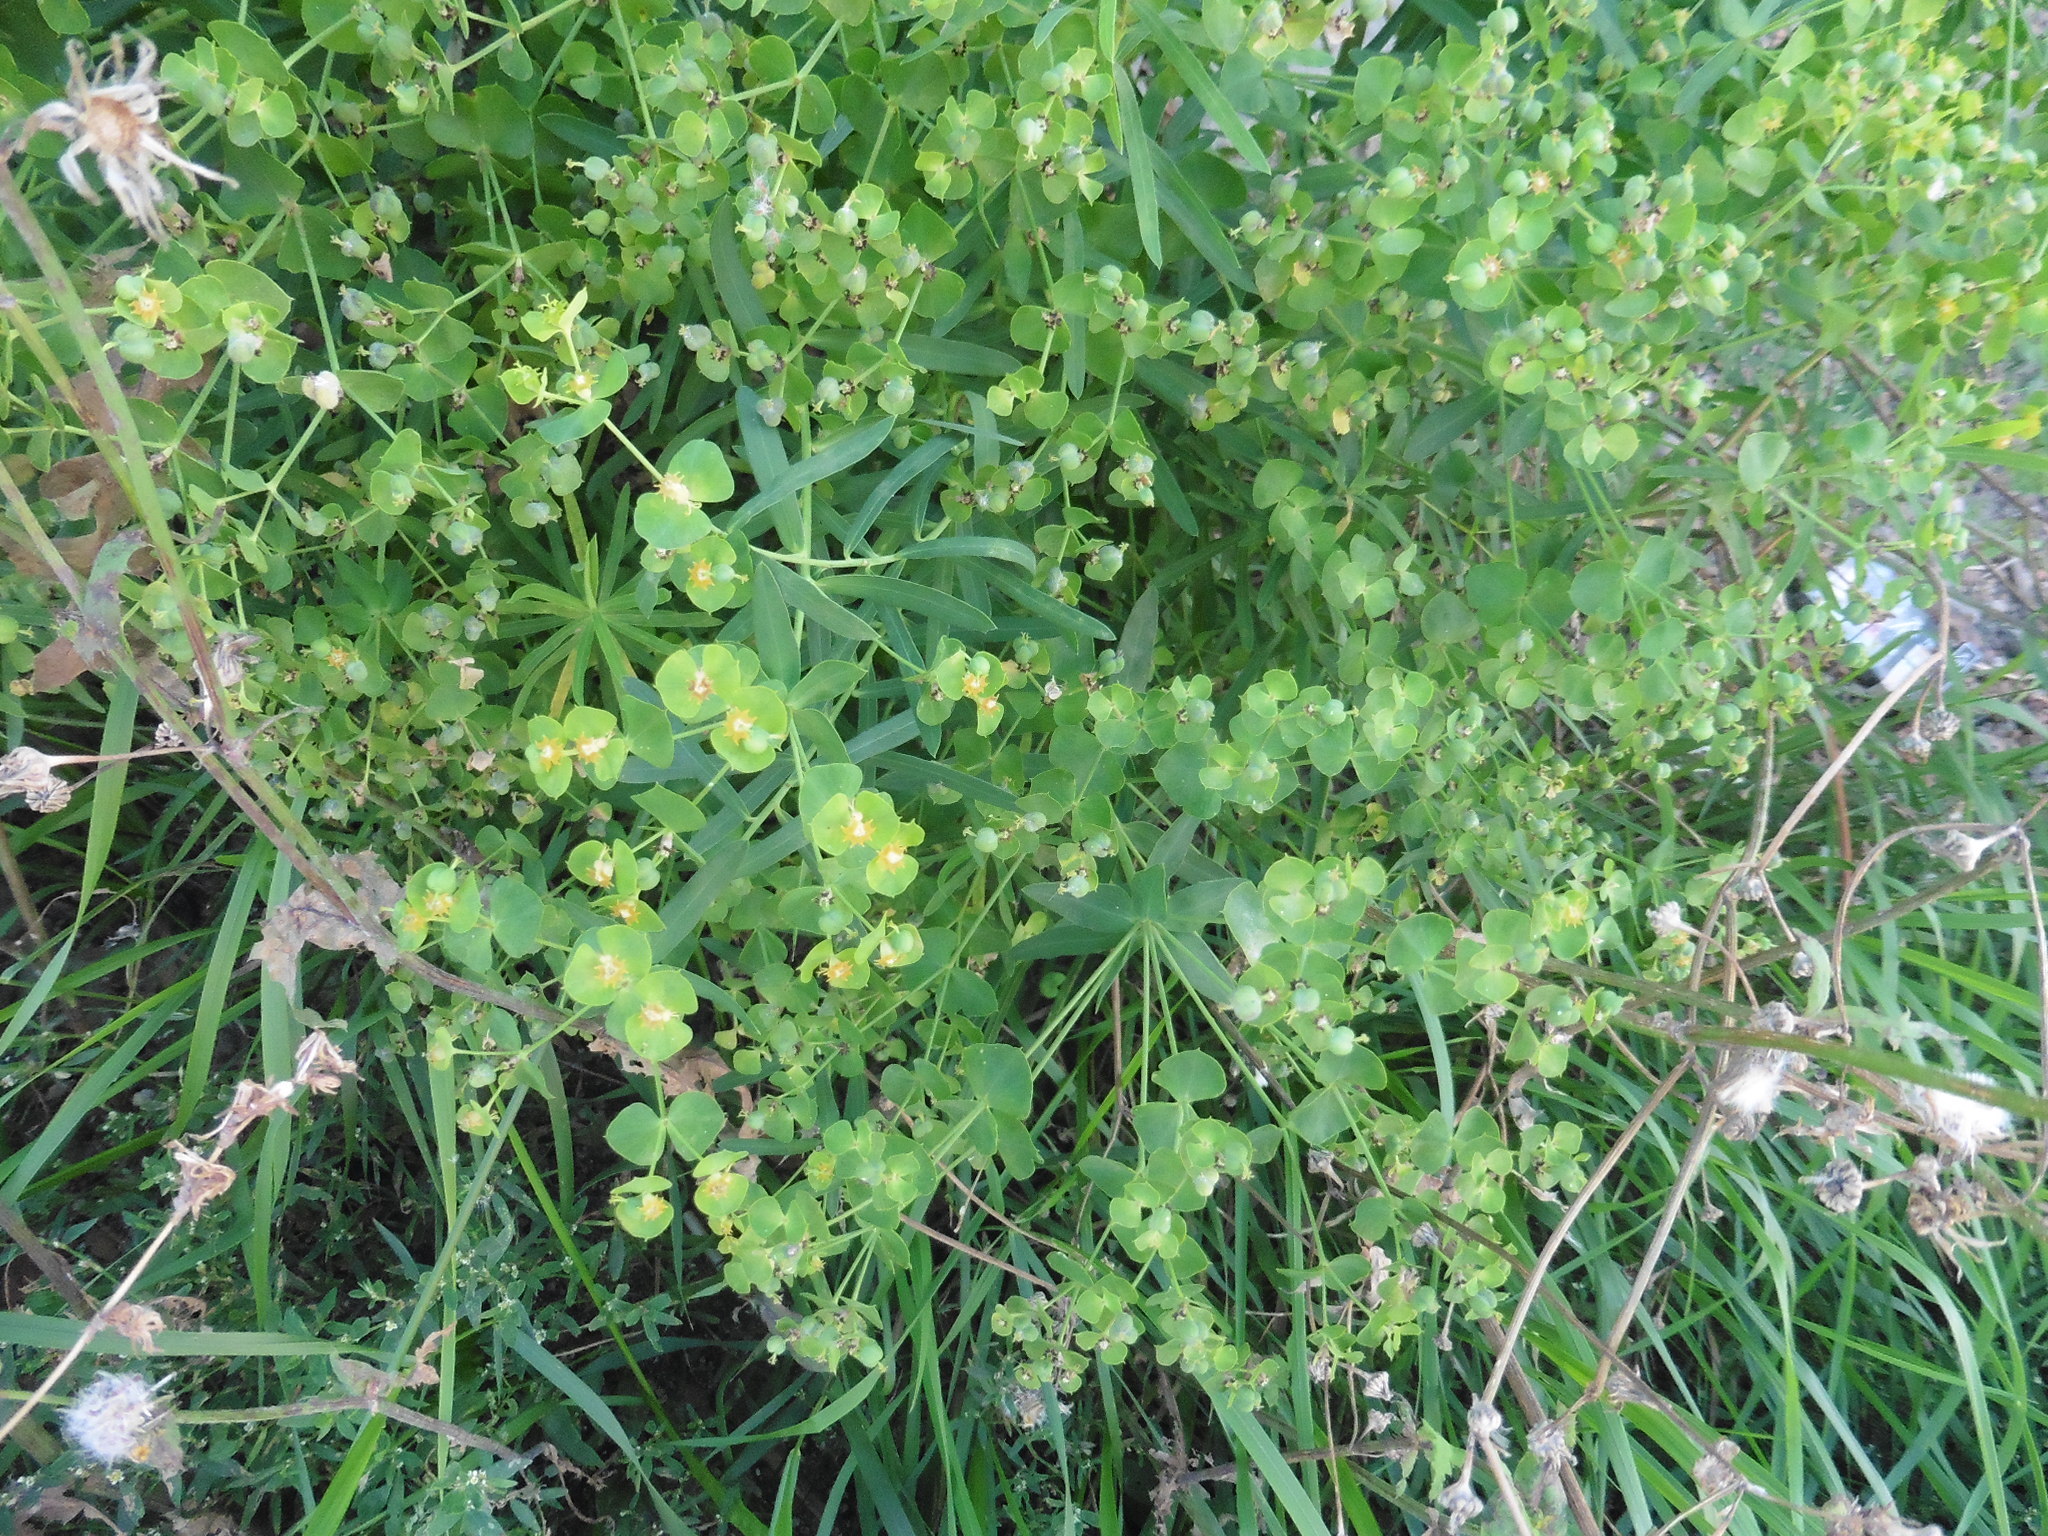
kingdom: Plantae
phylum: Tracheophyta
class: Magnoliopsida
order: Malpighiales
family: Euphorbiaceae
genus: Euphorbia
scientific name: Euphorbia virgata
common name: Leafy spurge
